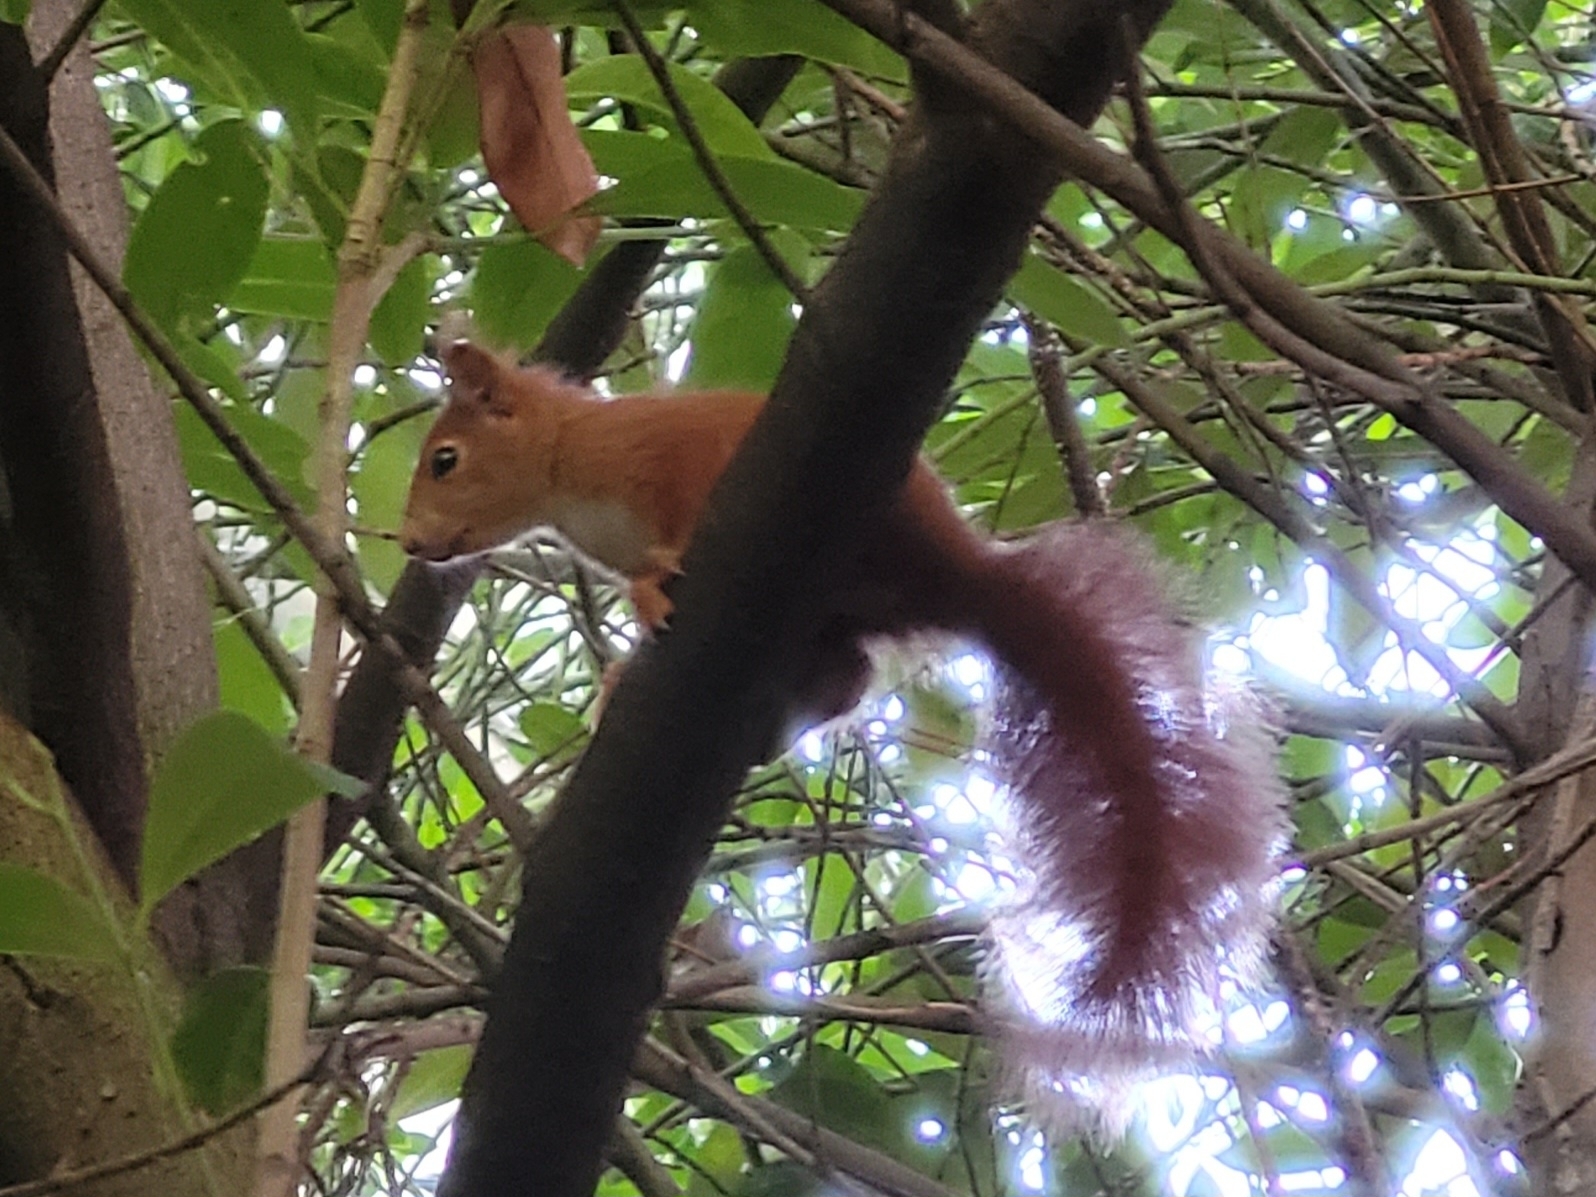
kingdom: Animalia
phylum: Chordata
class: Mammalia
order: Rodentia
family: Sciuridae
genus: Sciurus
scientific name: Sciurus vulgaris
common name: Eurasian red squirrel
